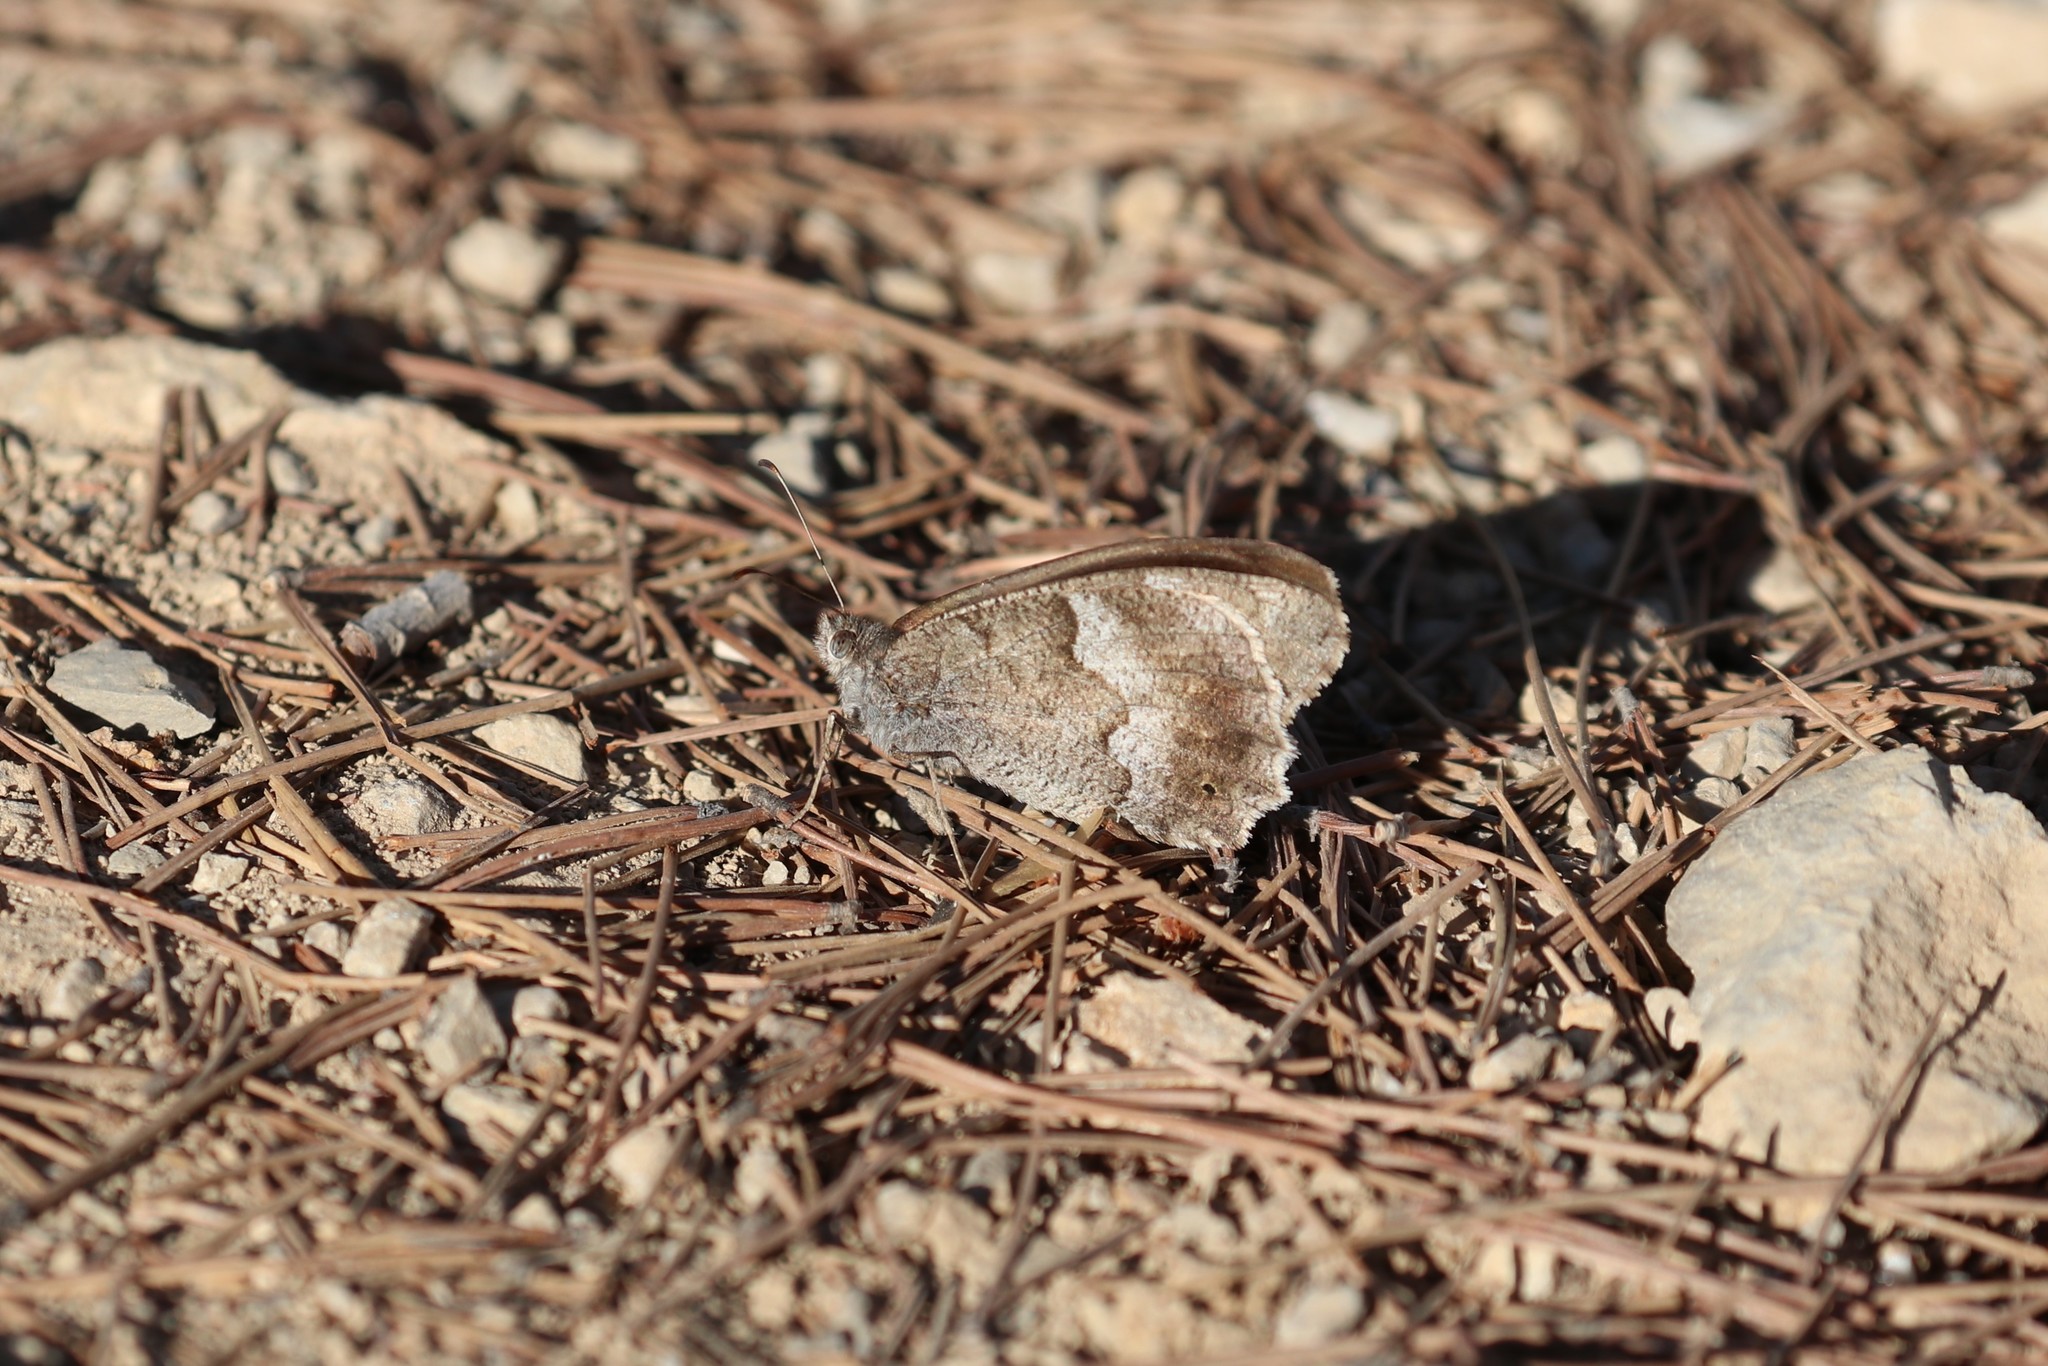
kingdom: Animalia
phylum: Arthropoda
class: Insecta
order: Lepidoptera
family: Nymphalidae
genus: Hipparchia
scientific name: Hipparchia statilinus
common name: Tree grayling
